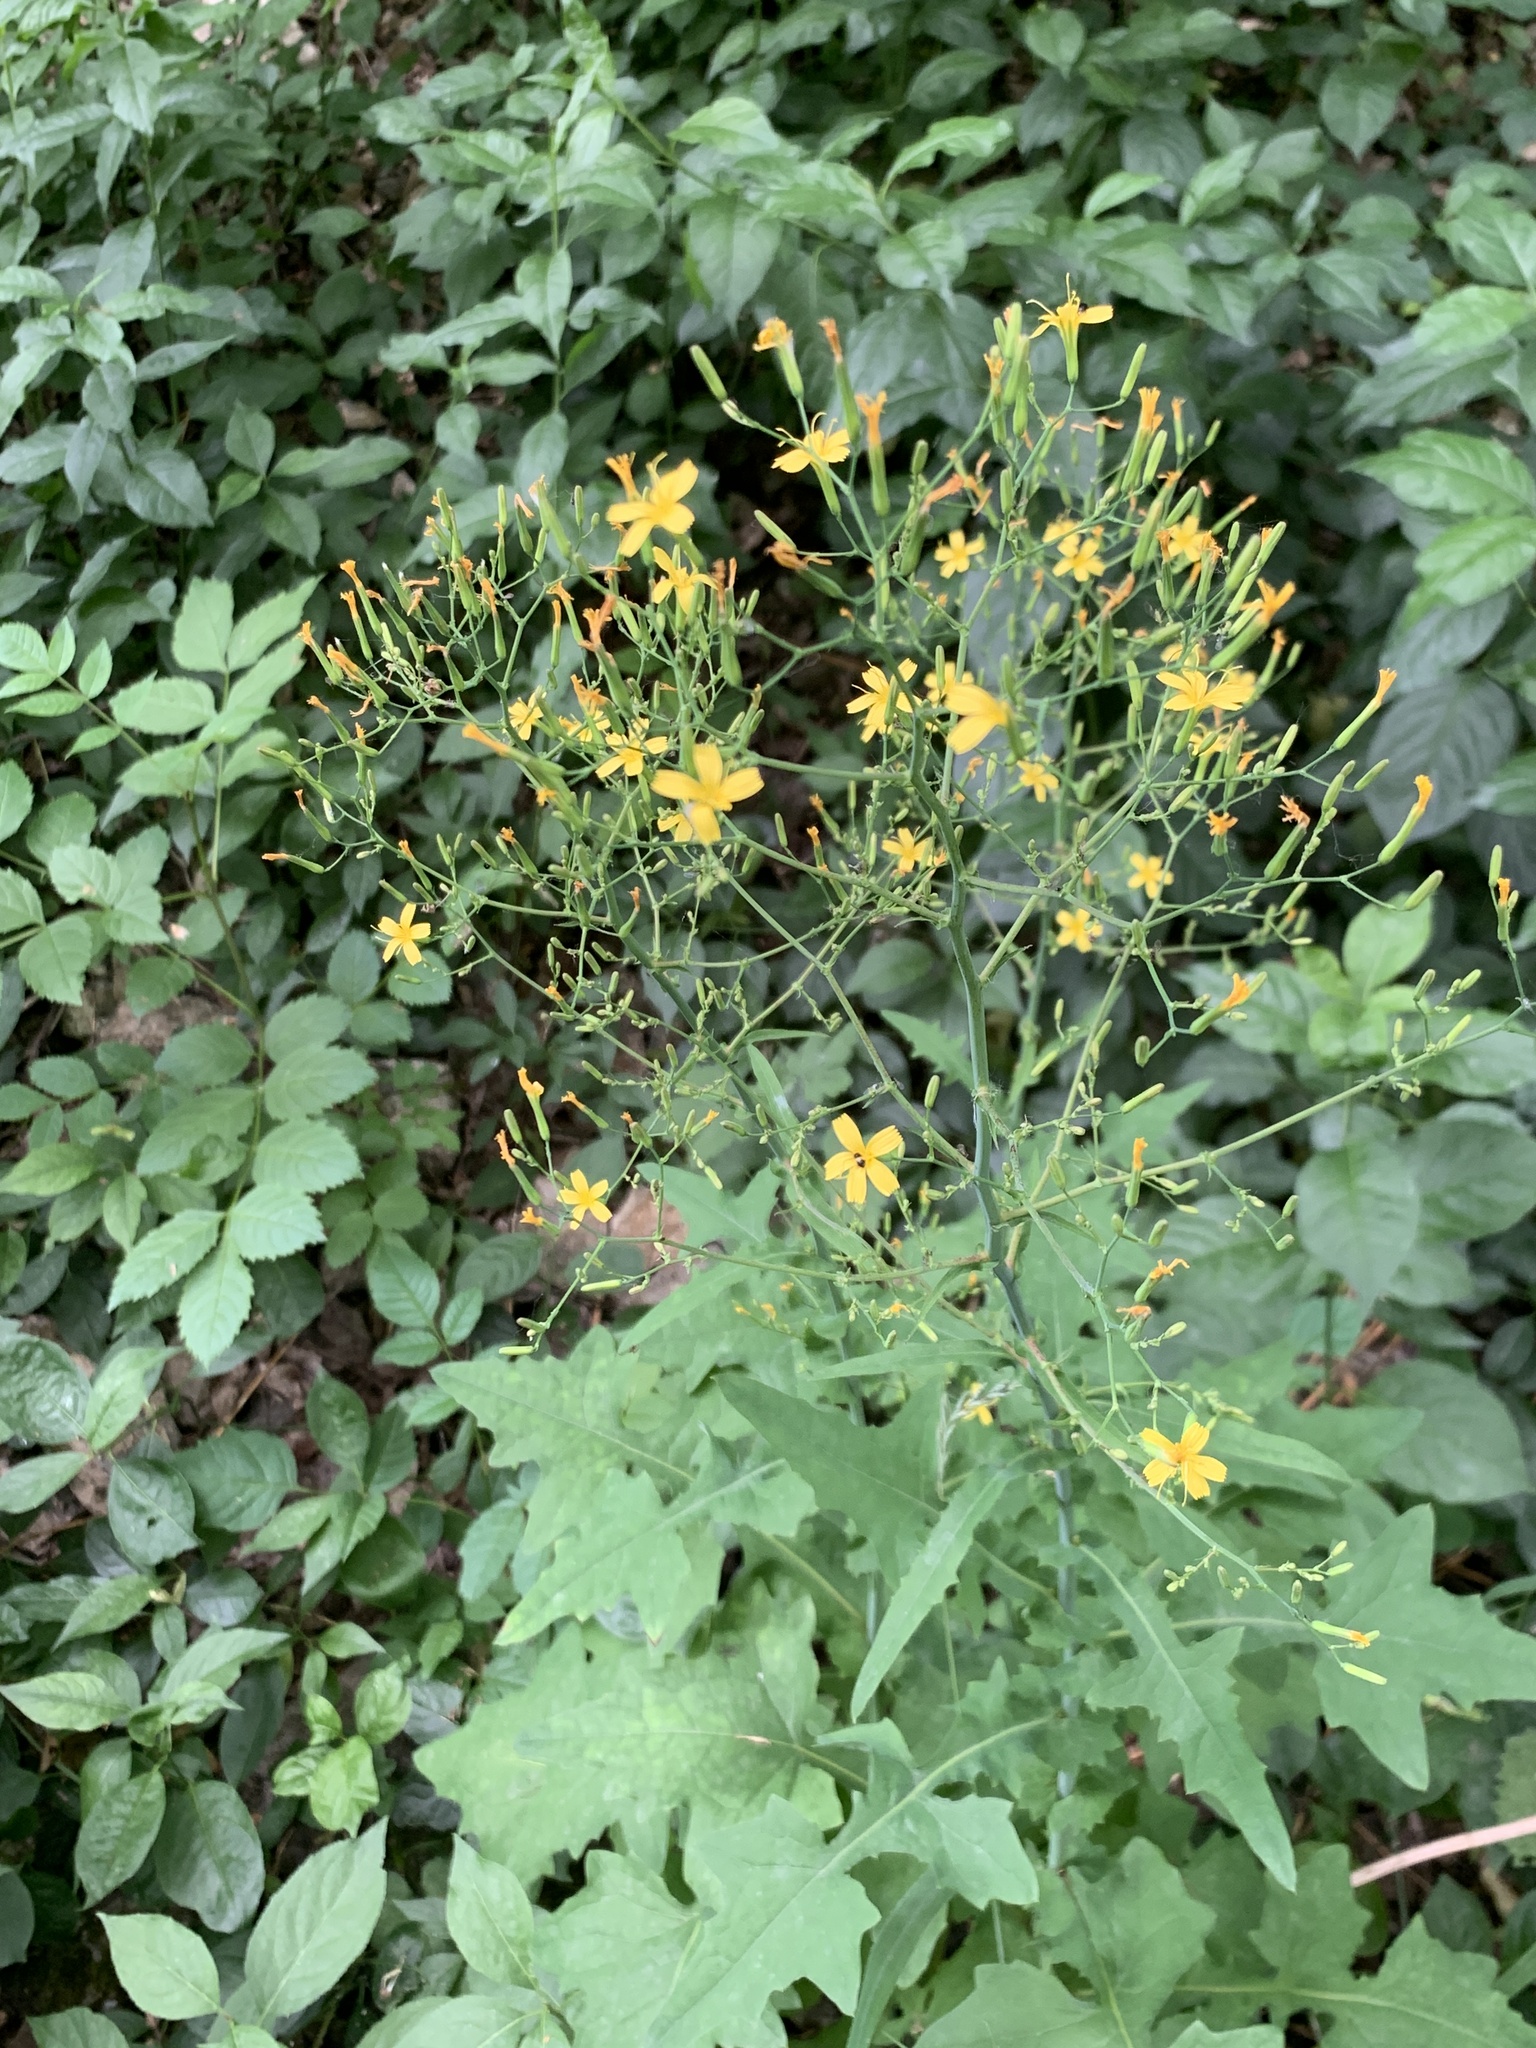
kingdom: Plantae
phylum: Tracheophyta
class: Magnoliopsida
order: Asterales
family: Asteraceae
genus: Mycelis
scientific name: Mycelis muralis
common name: Wall lettuce
